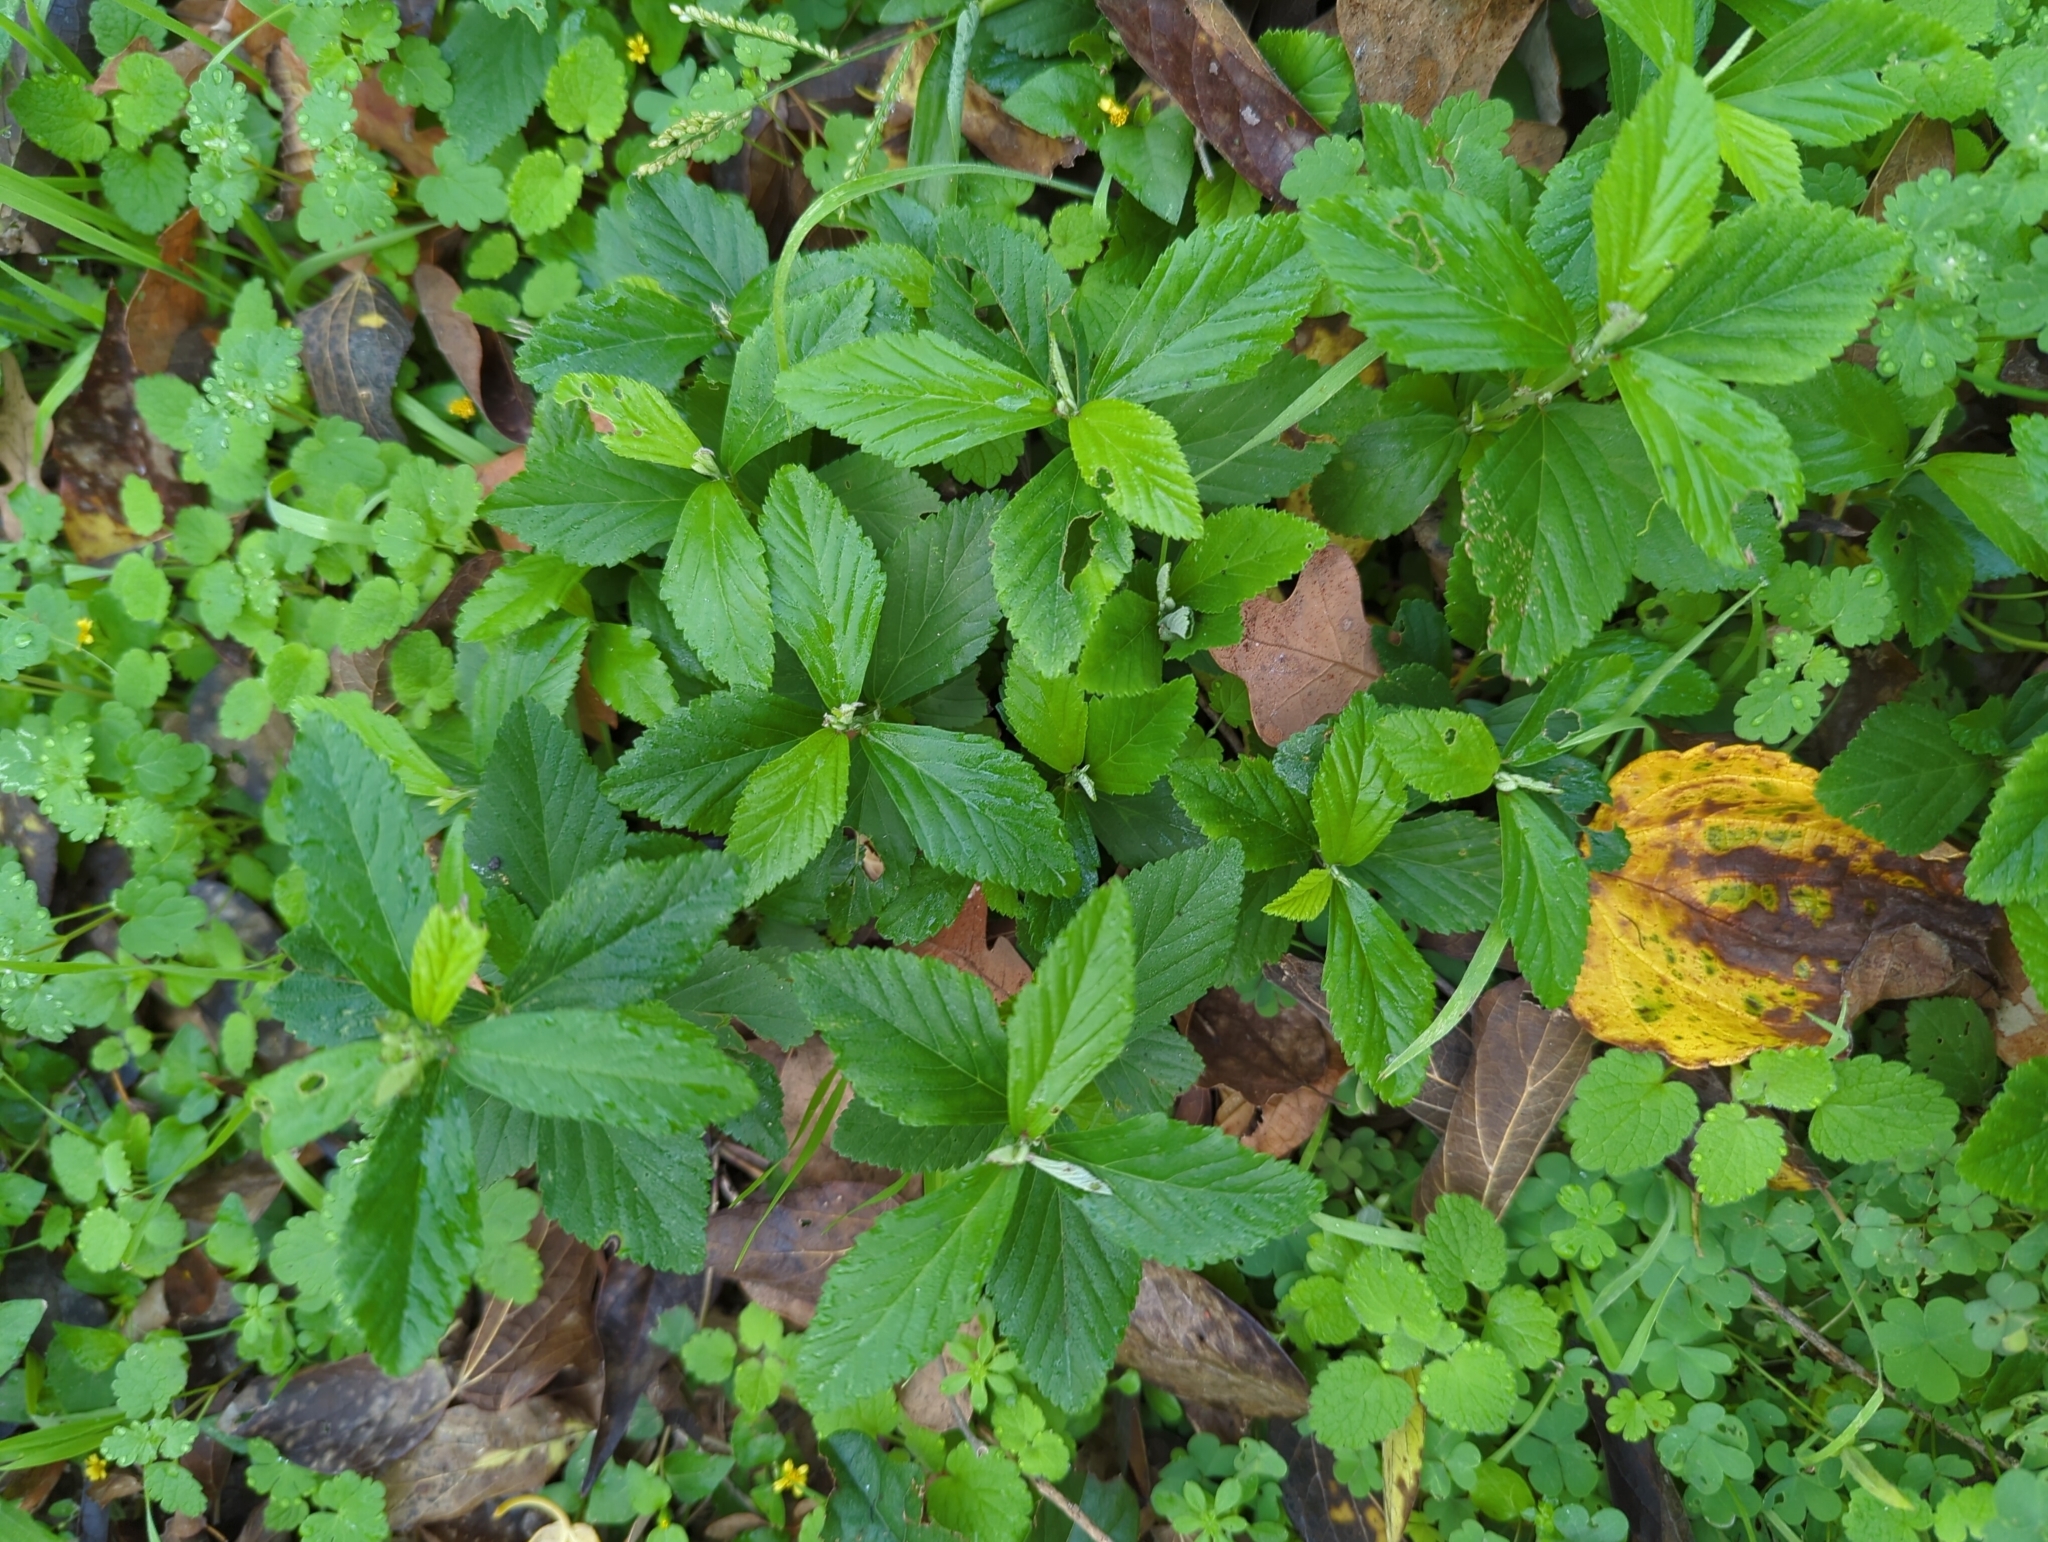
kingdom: Plantae
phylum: Tracheophyta
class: Magnoliopsida
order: Malvales
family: Malvaceae
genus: Sida
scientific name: Sida rhombifolia
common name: Queensland-hemp
